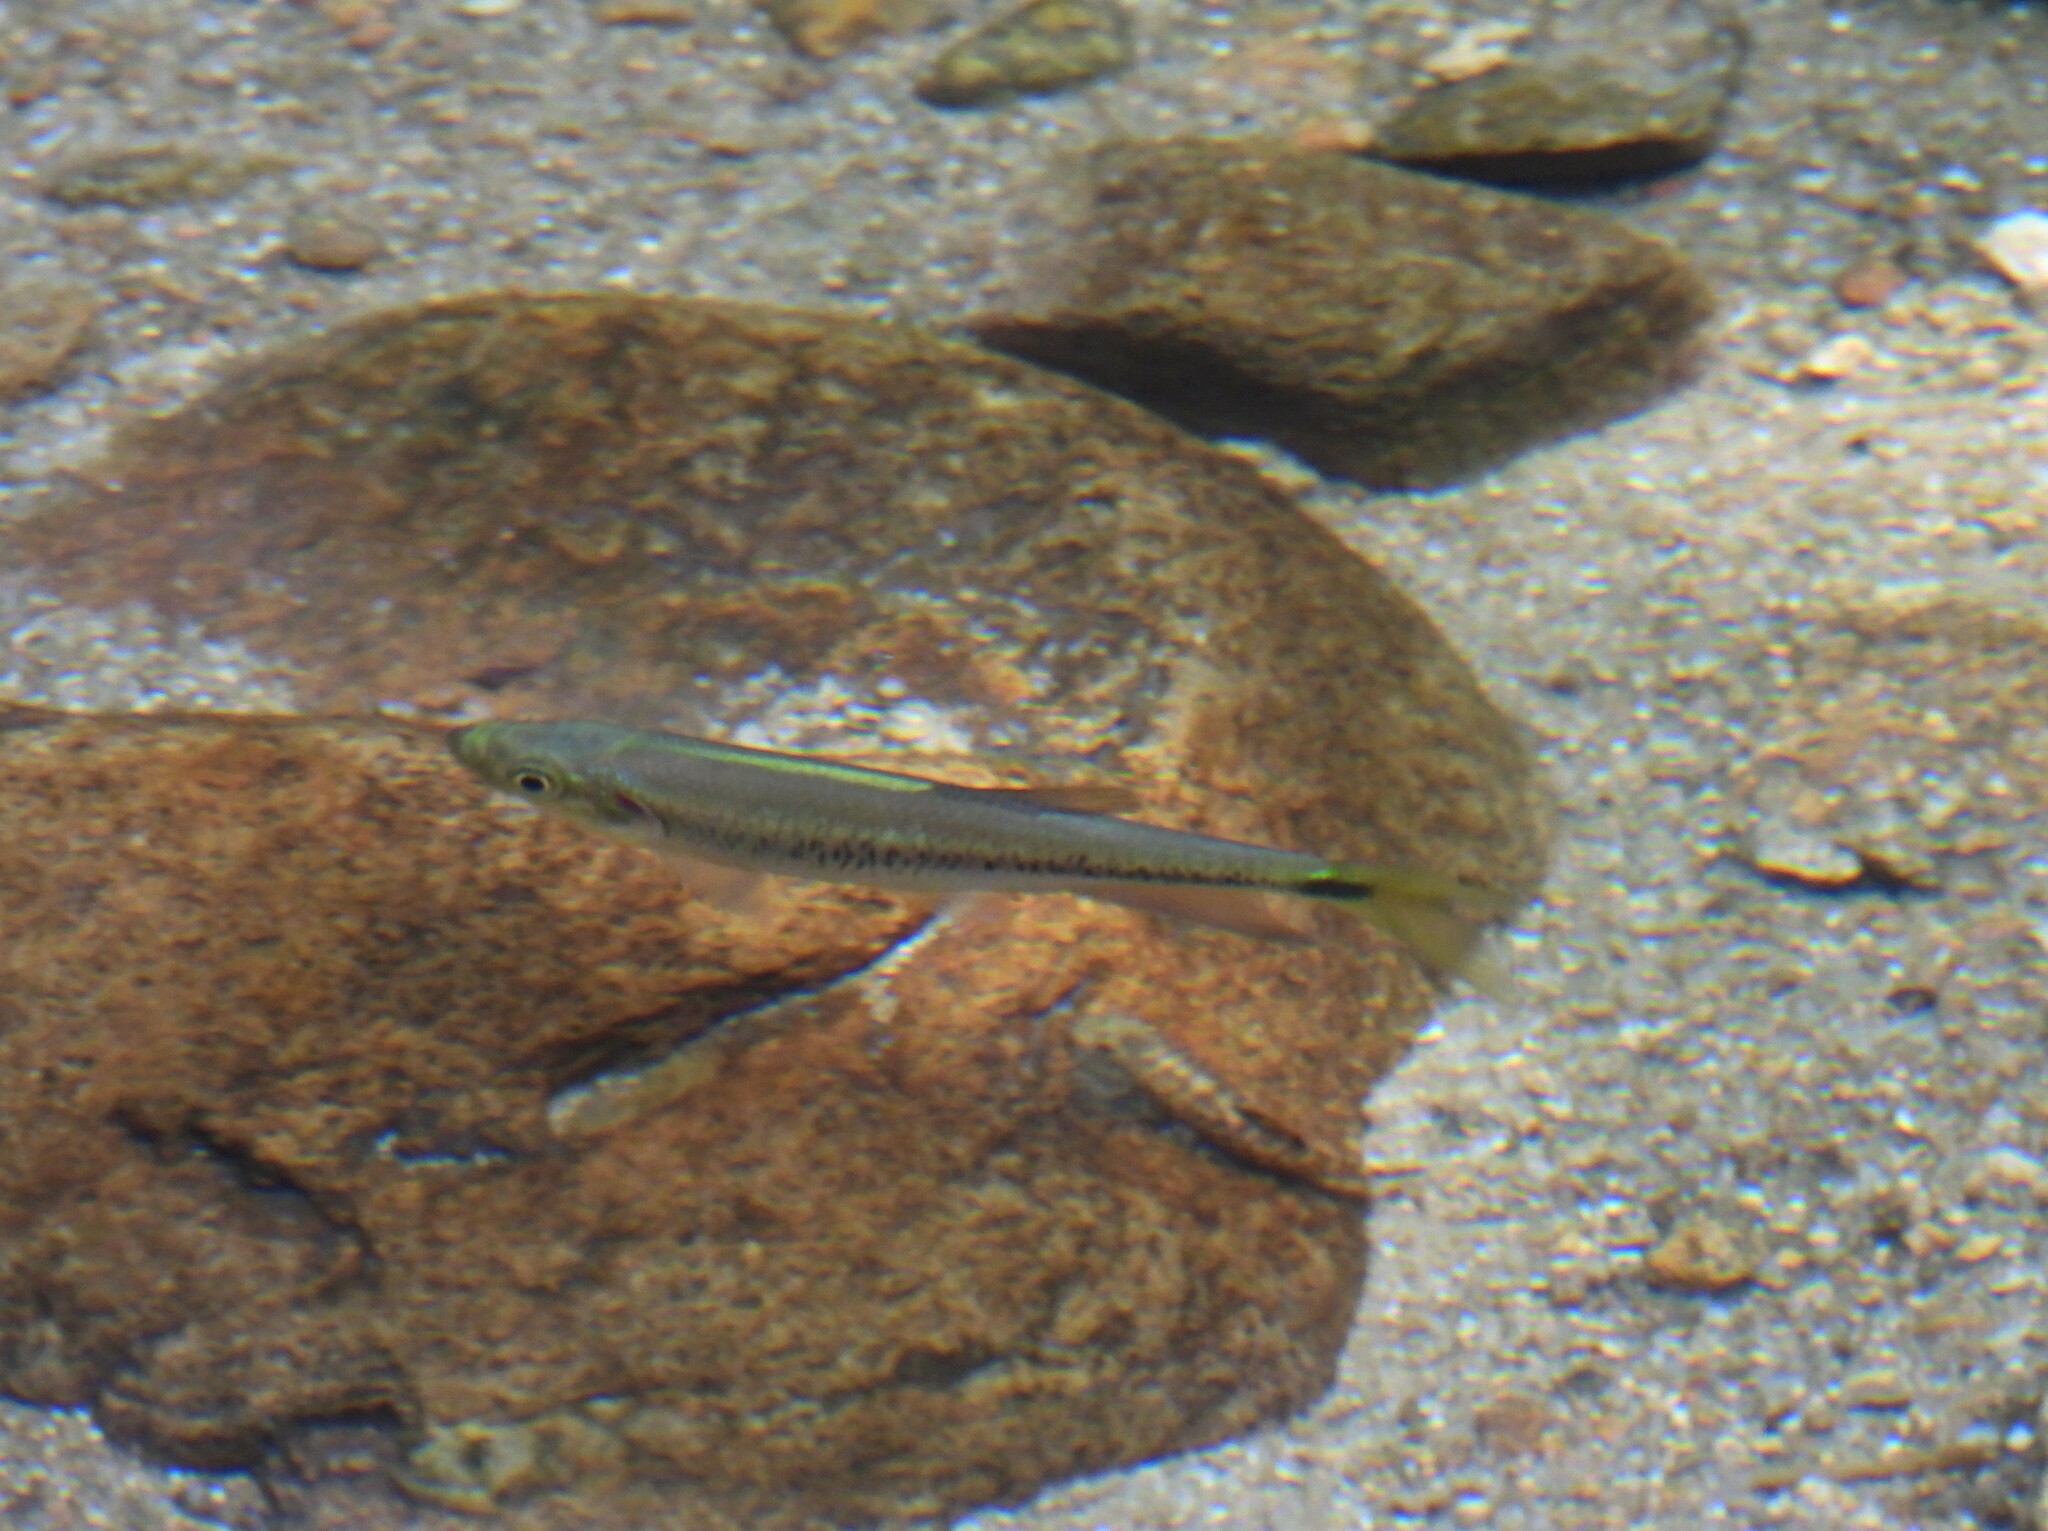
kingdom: Animalia
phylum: Chordata
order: Cypriniformes
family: Cyprinidae
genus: Parazacco
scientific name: Parazacco spilurus
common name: Predaceous chub
